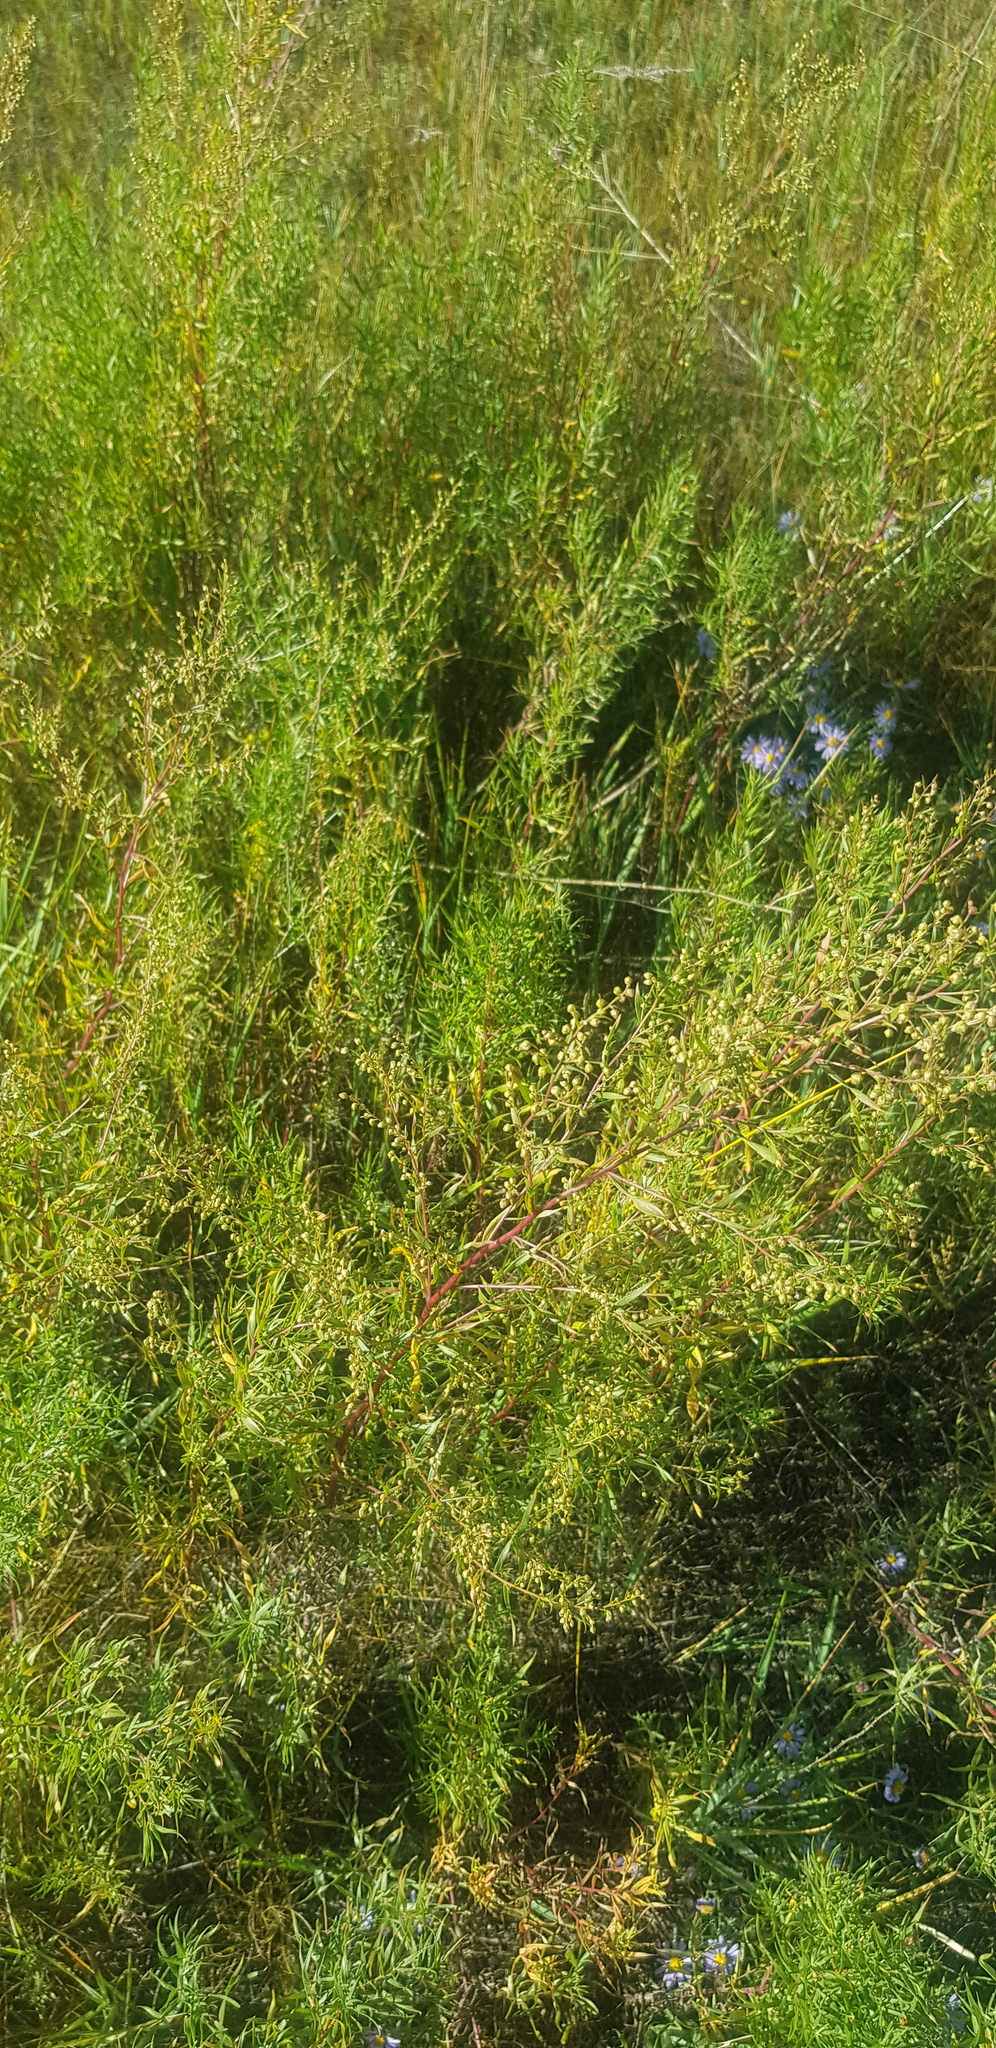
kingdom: Plantae
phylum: Tracheophyta
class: Magnoliopsida
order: Asterales
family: Asteraceae
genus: Artemisia
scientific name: Artemisia dracunculus
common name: Tarragon
